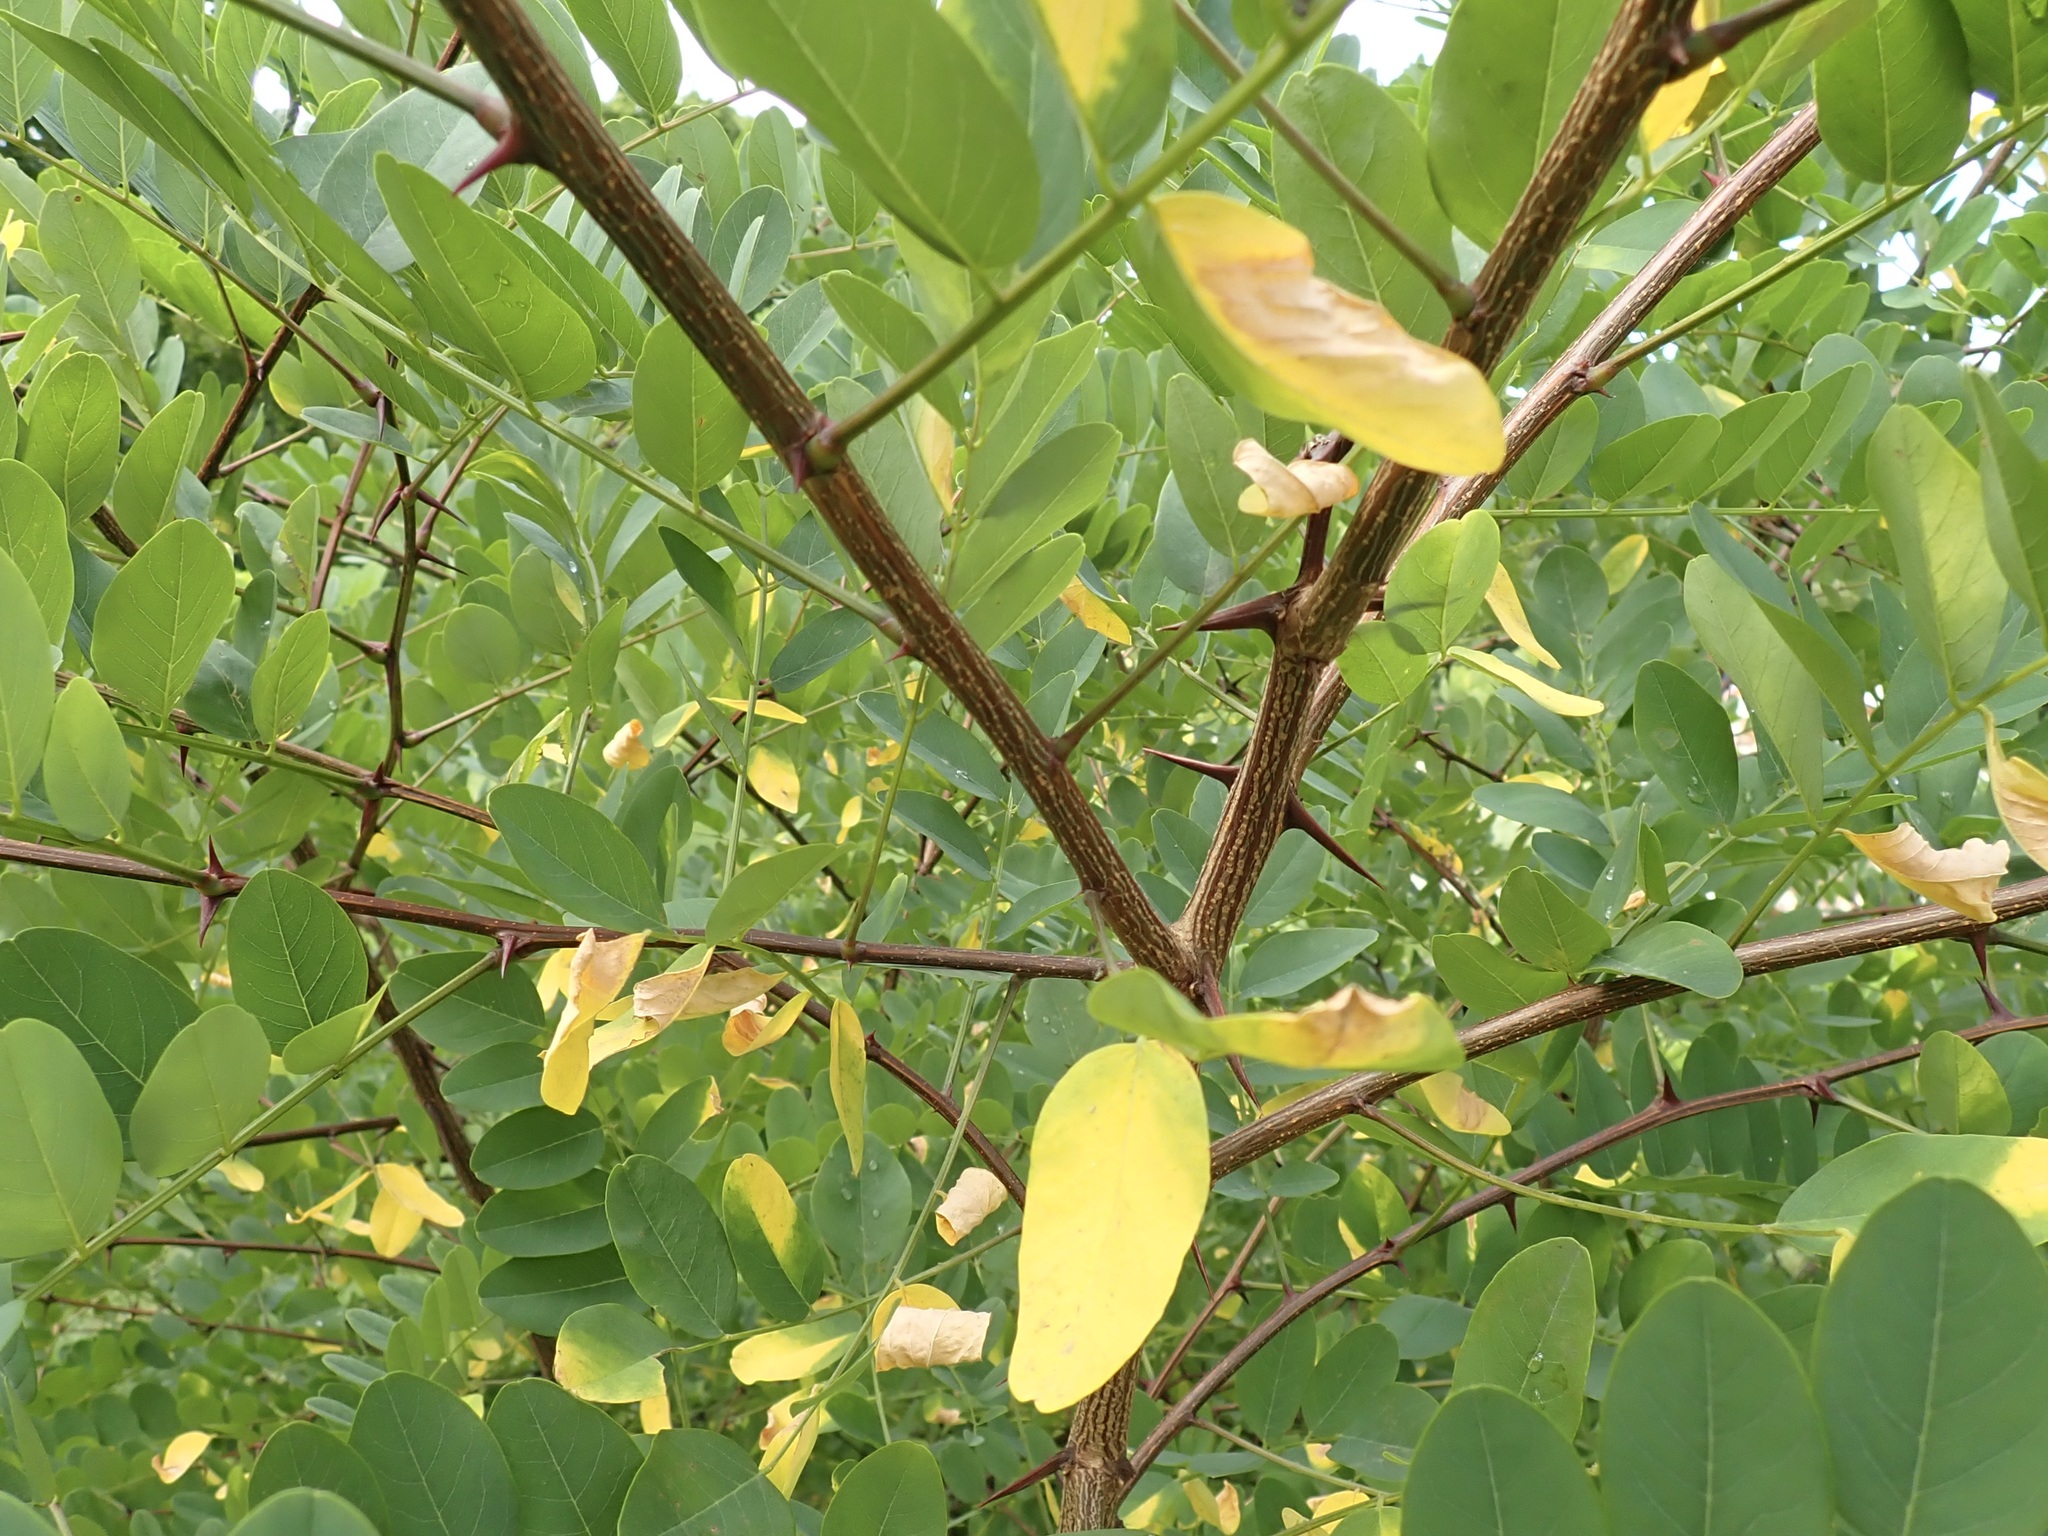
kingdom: Plantae
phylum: Tracheophyta
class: Magnoliopsida
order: Fabales
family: Fabaceae
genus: Robinia
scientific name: Robinia pseudoacacia
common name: Black locust
